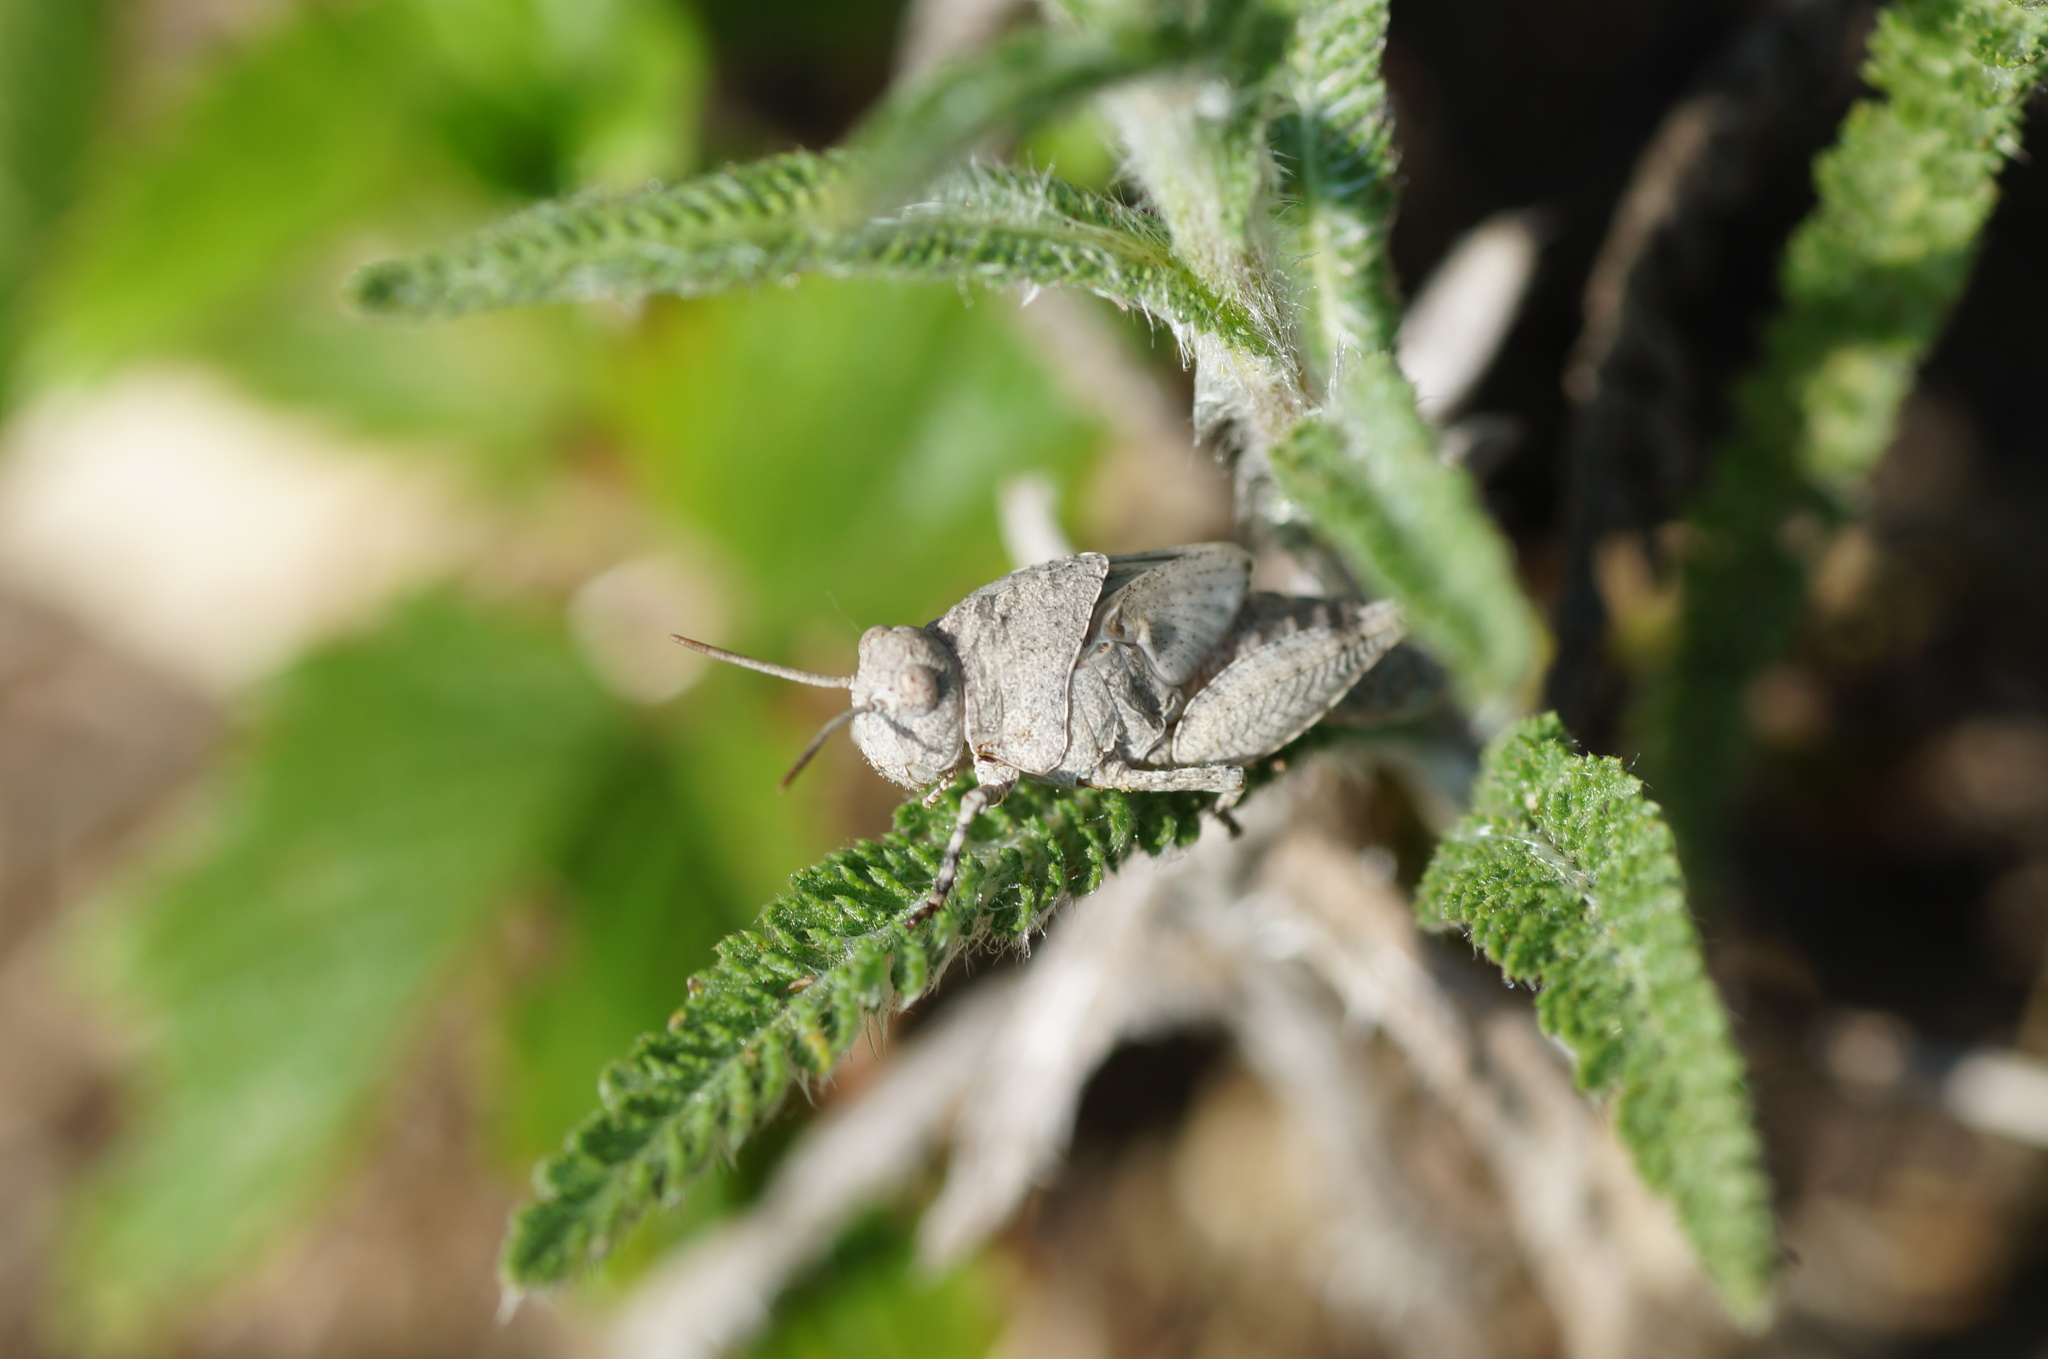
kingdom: Animalia
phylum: Arthropoda
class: Insecta
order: Orthoptera
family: Acrididae
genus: Oedipoda
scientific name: Oedipoda caerulescens
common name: Blue-winged grasshopper
